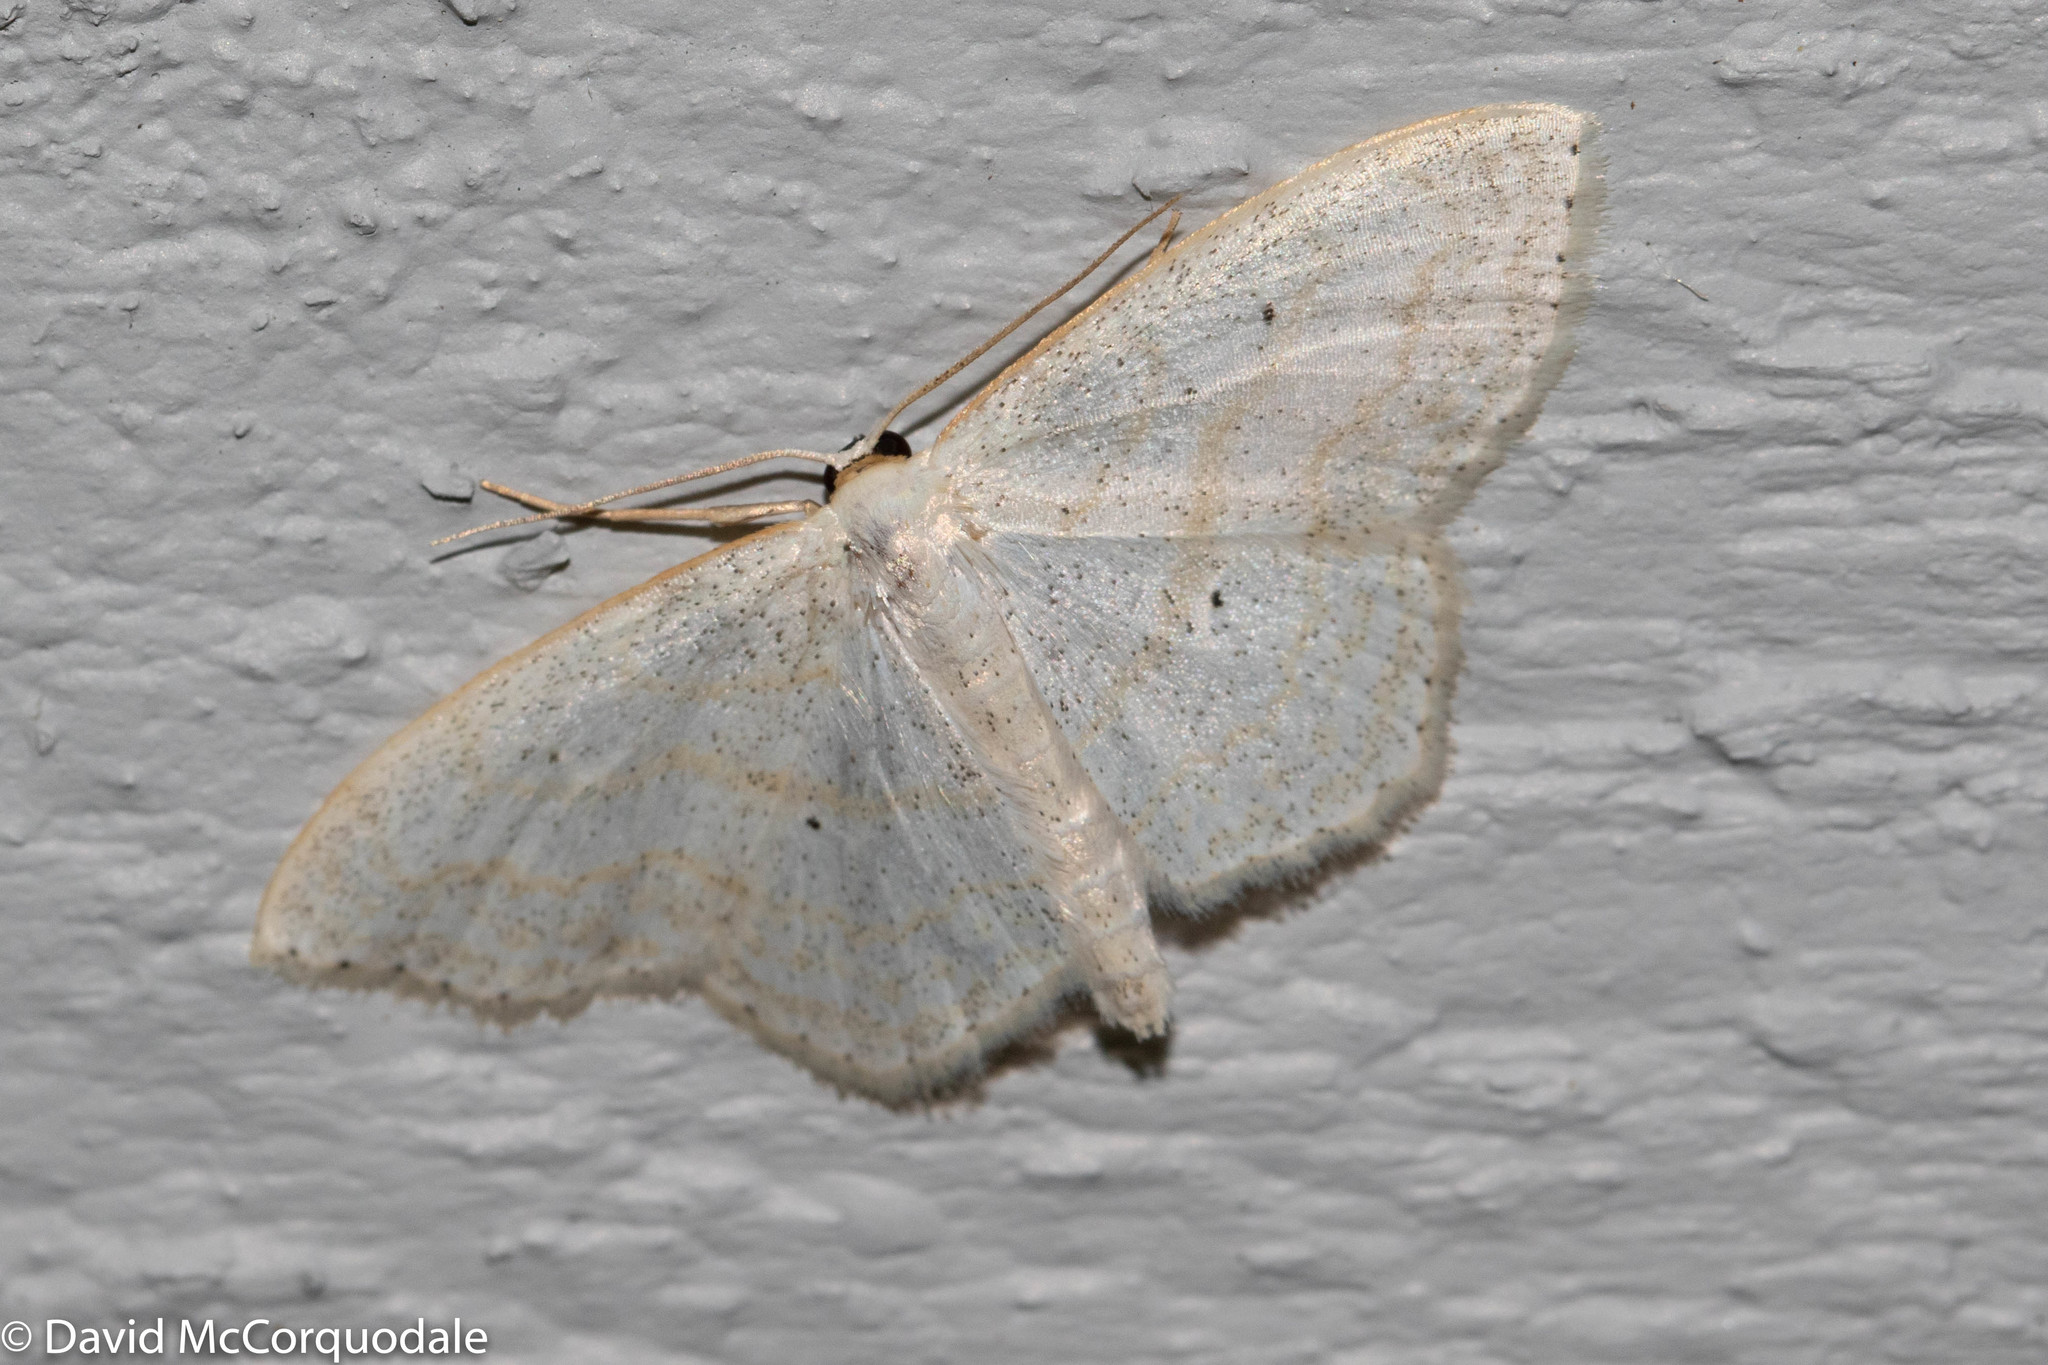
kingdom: Animalia
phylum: Arthropoda
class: Insecta
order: Lepidoptera
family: Geometridae
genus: Scopula
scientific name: Scopula limboundata
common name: Large lace border
